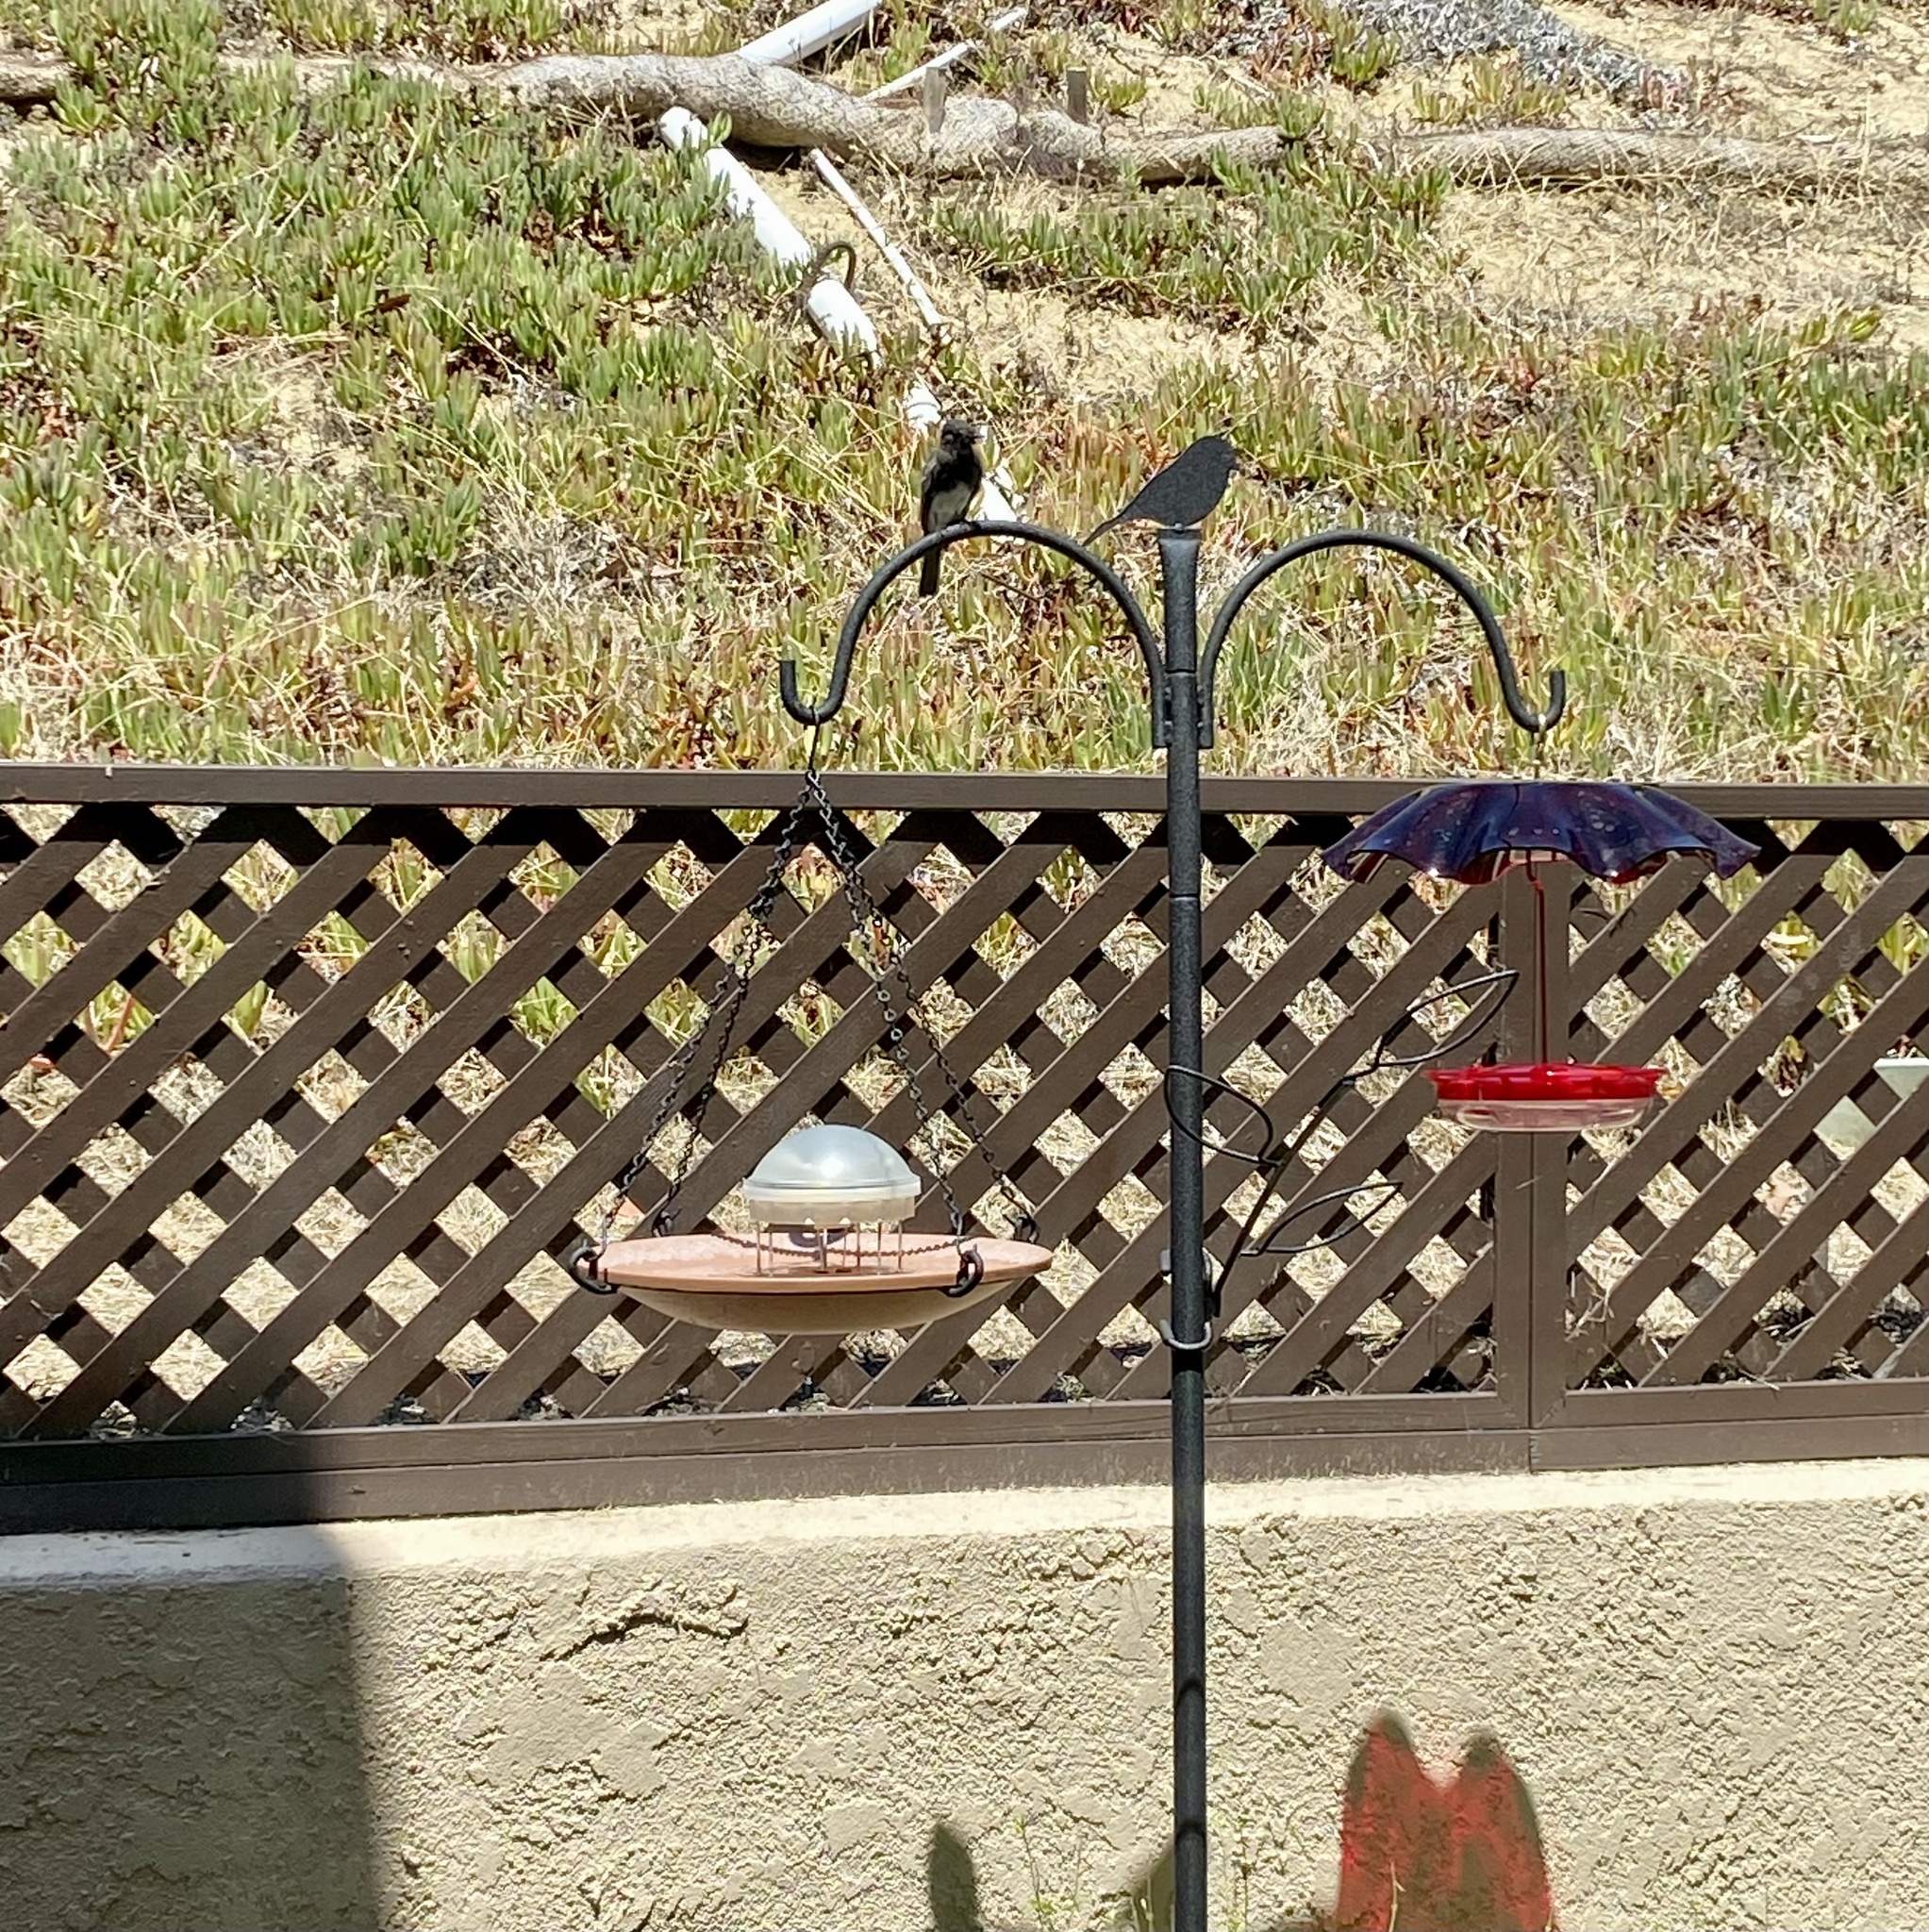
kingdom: Animalia
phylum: Chordata
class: Aves
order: Passeriformes
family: Tyrannidae
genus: Sayornis
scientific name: Sayornis nigricans
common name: Black phoebe
